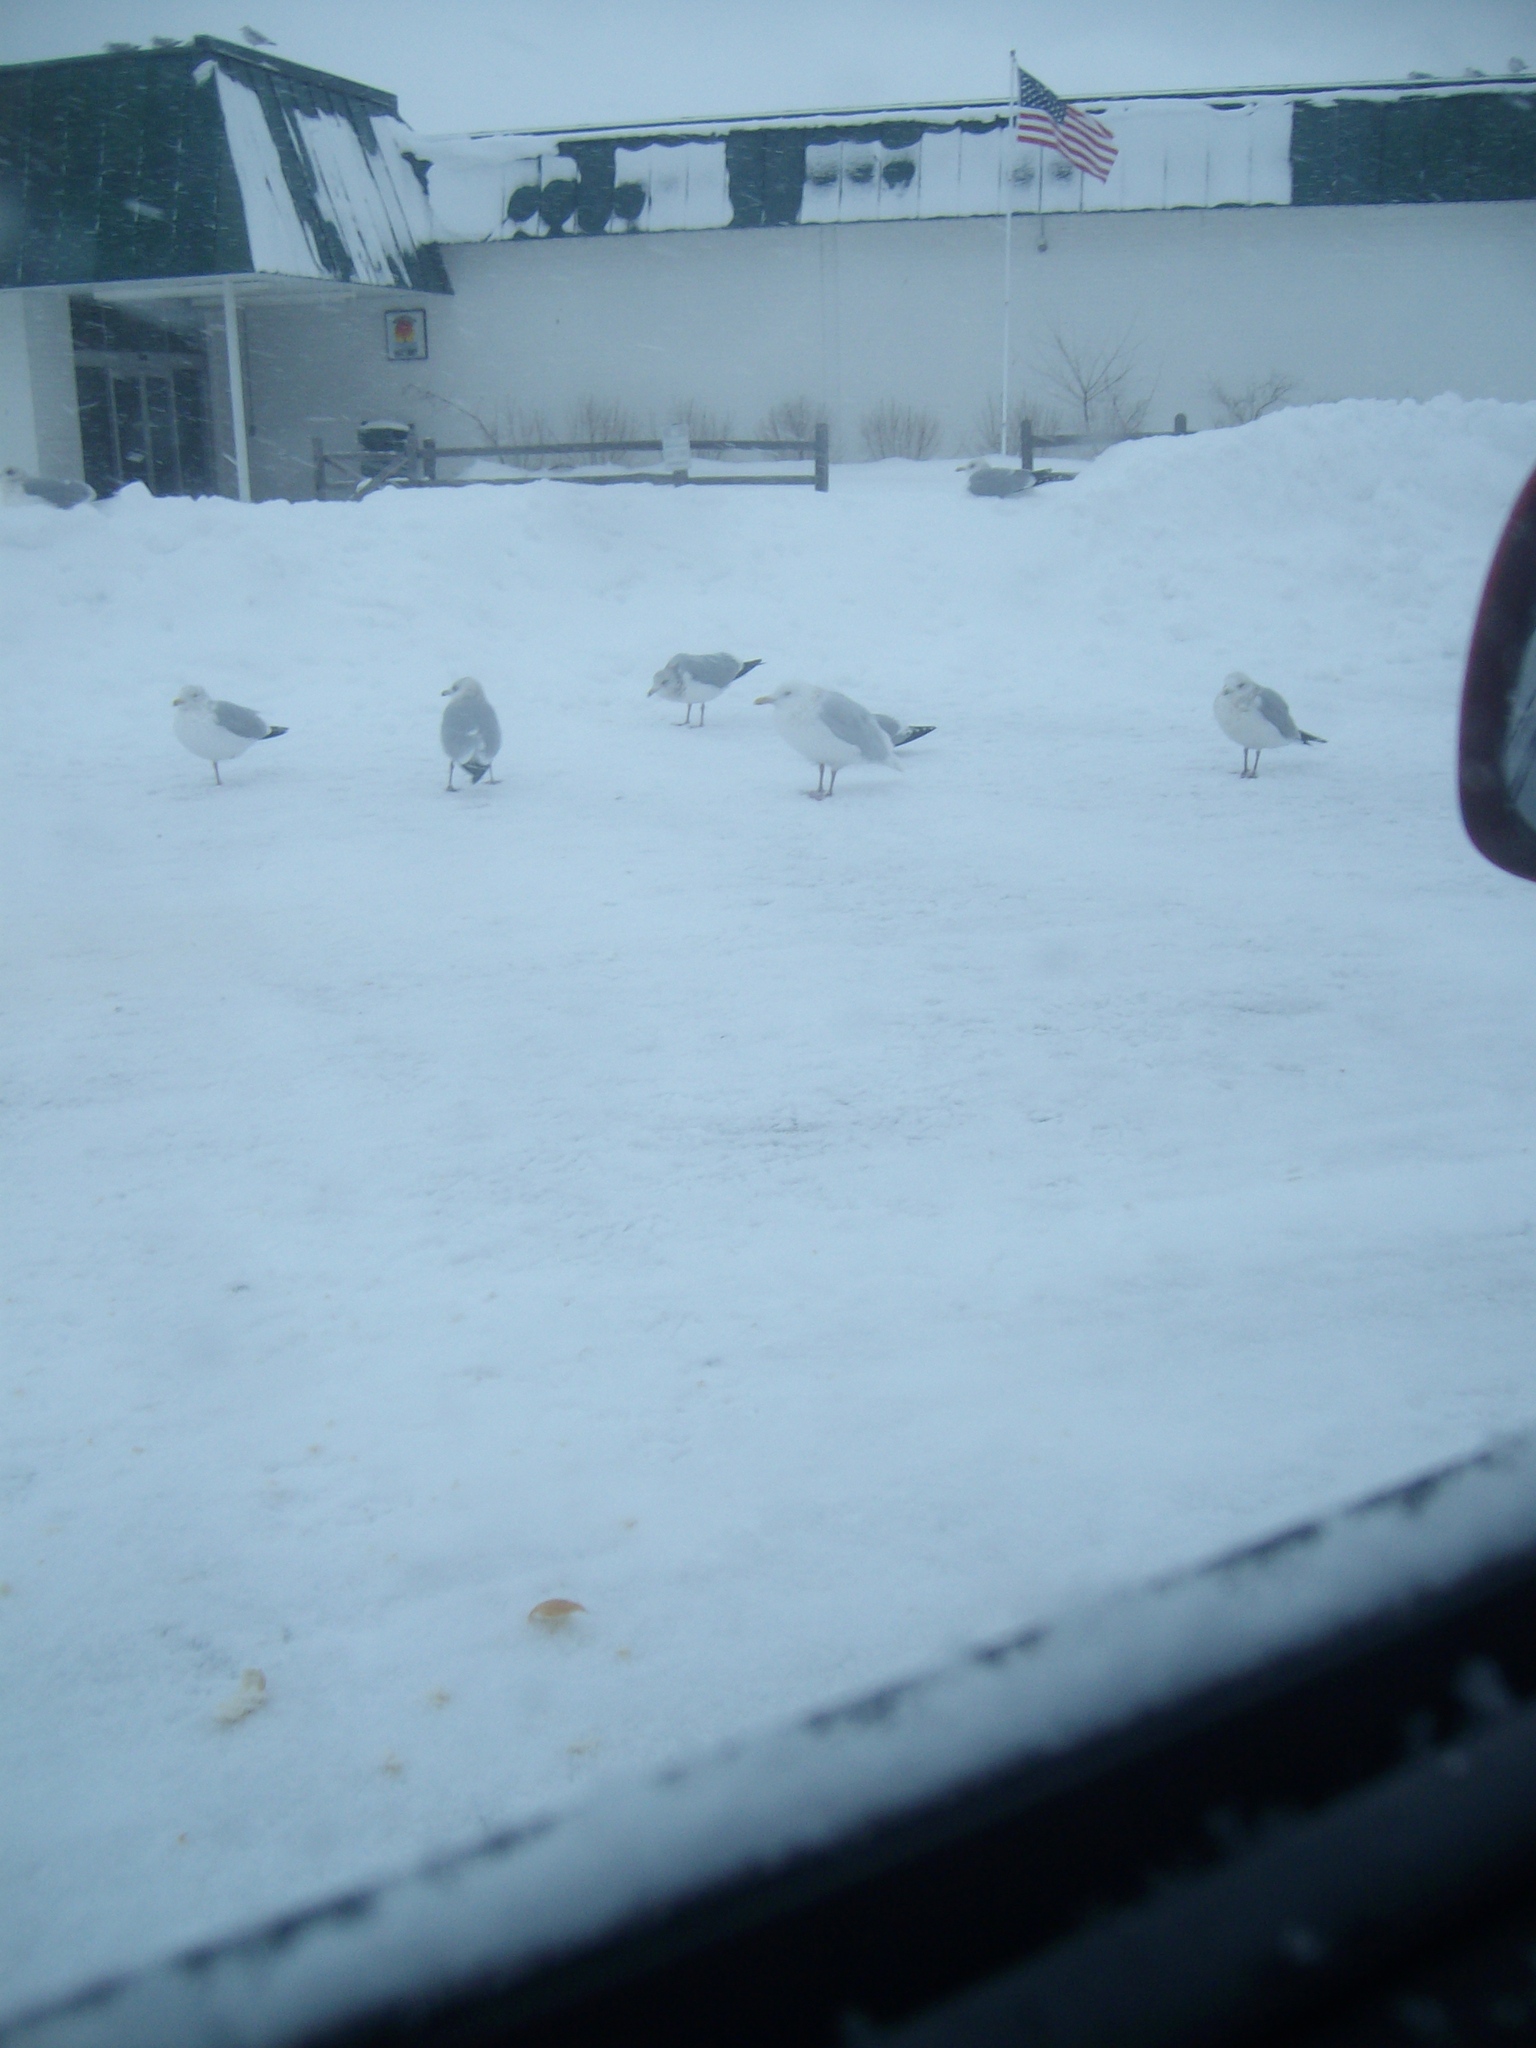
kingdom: Animalia
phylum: Chordata
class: Aves
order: Charadriiformes
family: Laridae
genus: Larus
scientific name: Larus hyperboreus
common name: Glaucous gull
